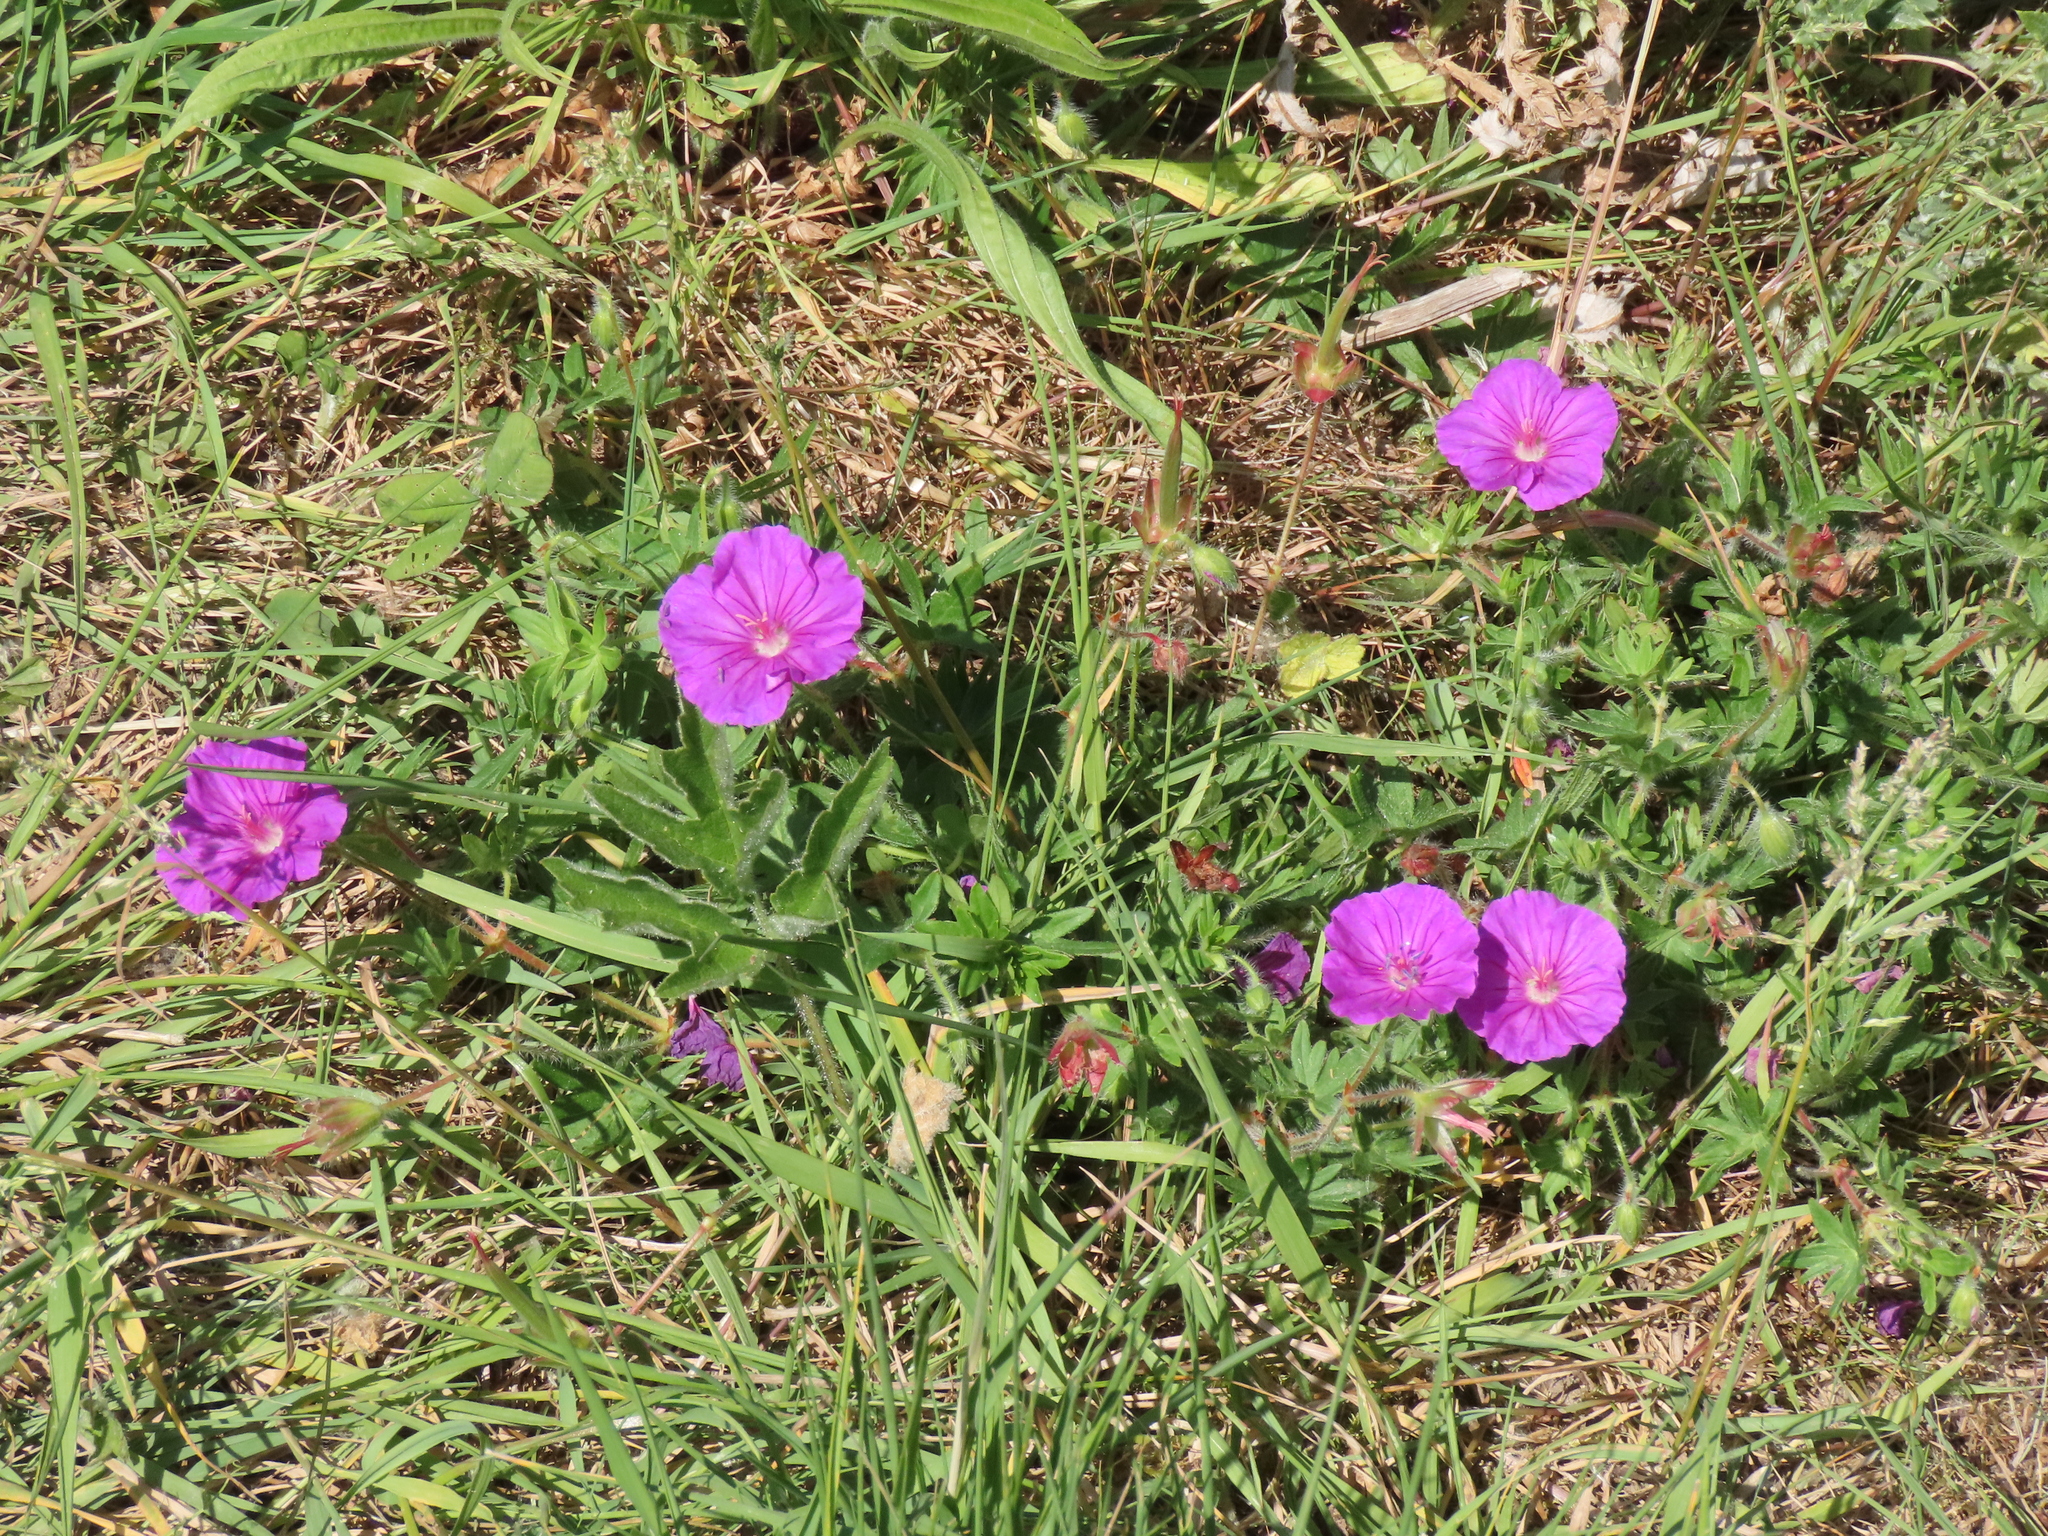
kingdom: Plantae
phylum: Tracheophyta
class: Magnoliopsida
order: Geraniales
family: Geraniaceae
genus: Geranium
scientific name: Geranium sanguineum
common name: Bloody crane's-bill
